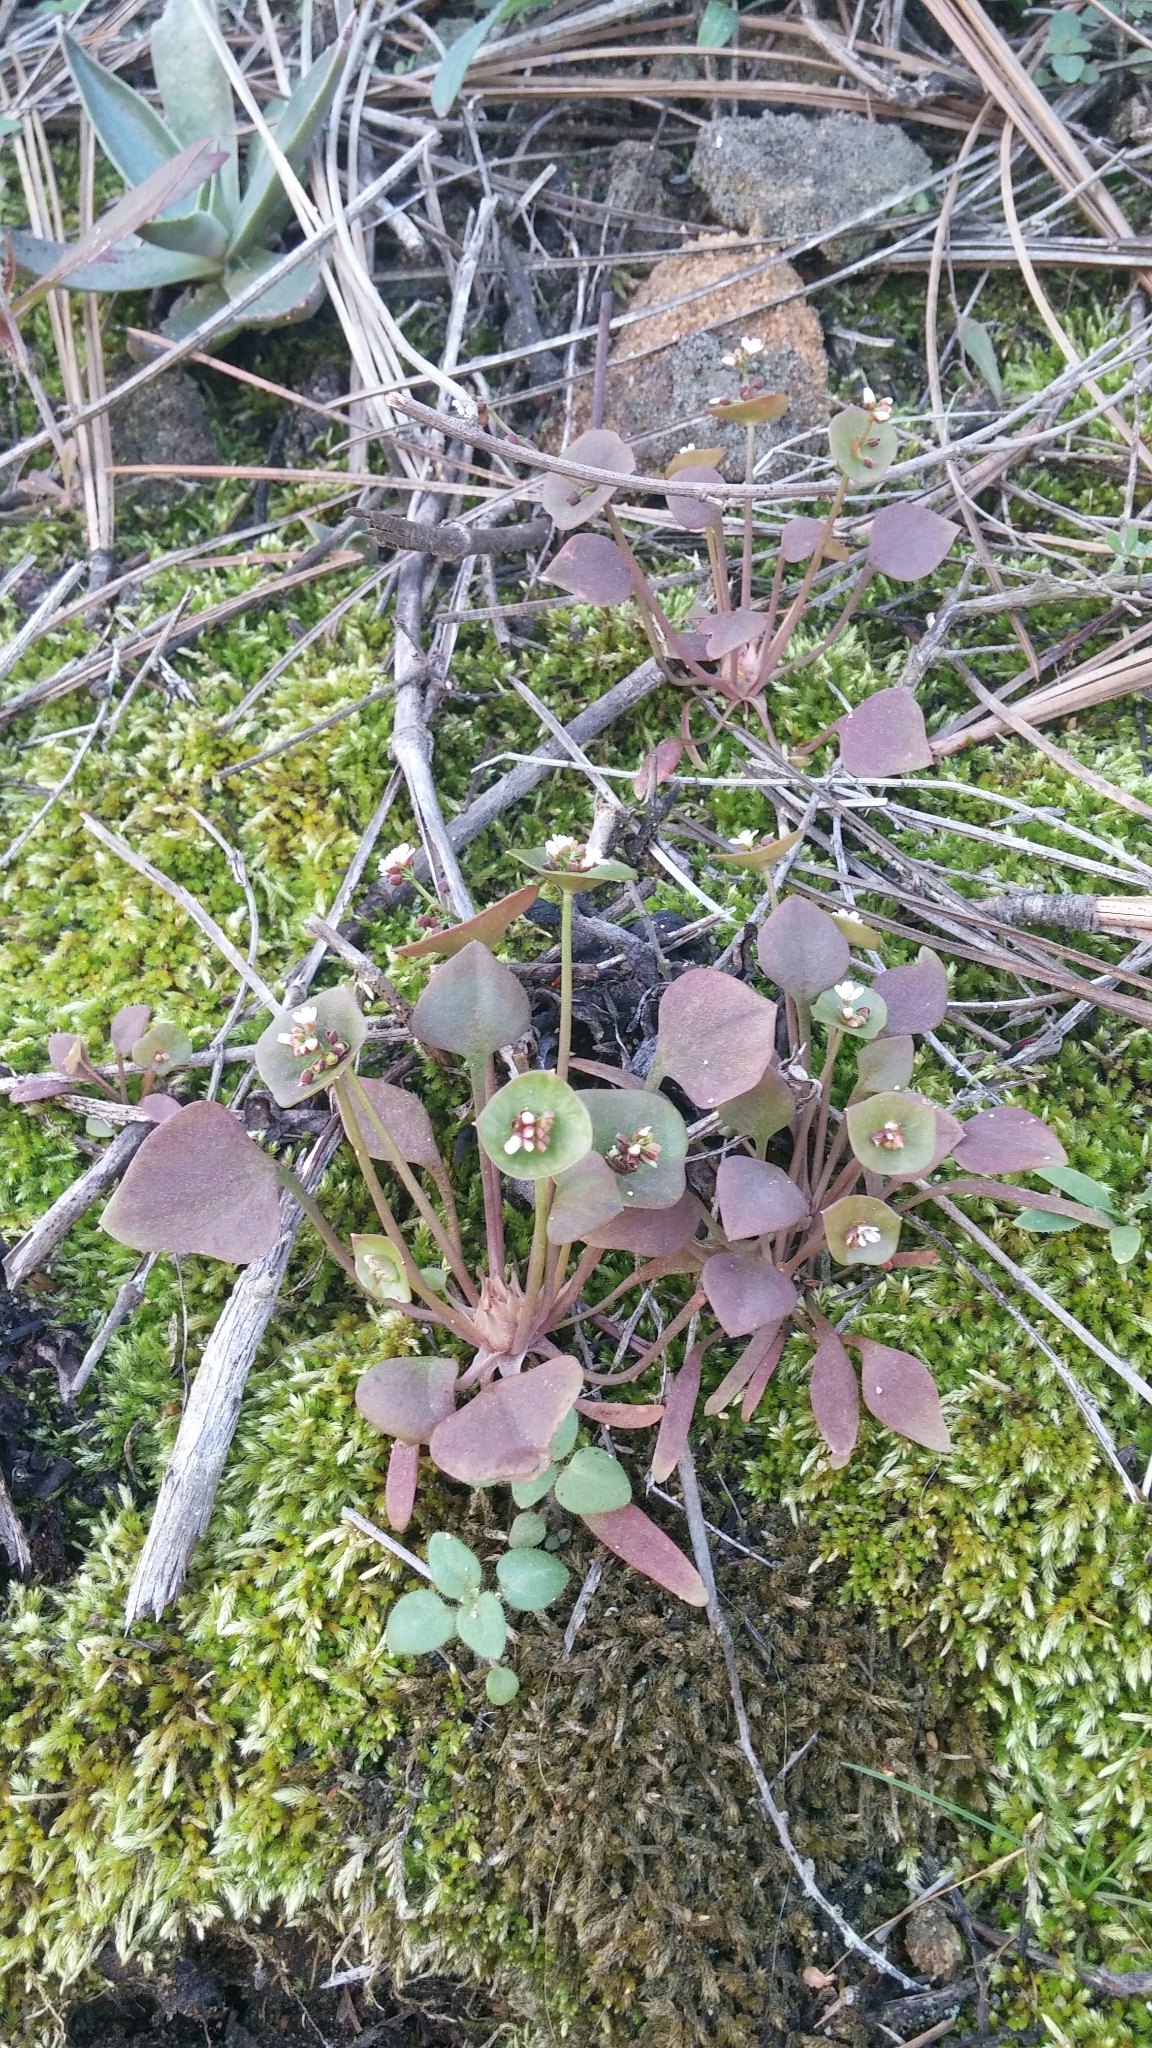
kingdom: Plantae
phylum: Tracheophyta
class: Magnoliopsida
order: Caryophyllales
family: Montiaceae
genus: Claytonia
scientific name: Claytonia perfoliata
